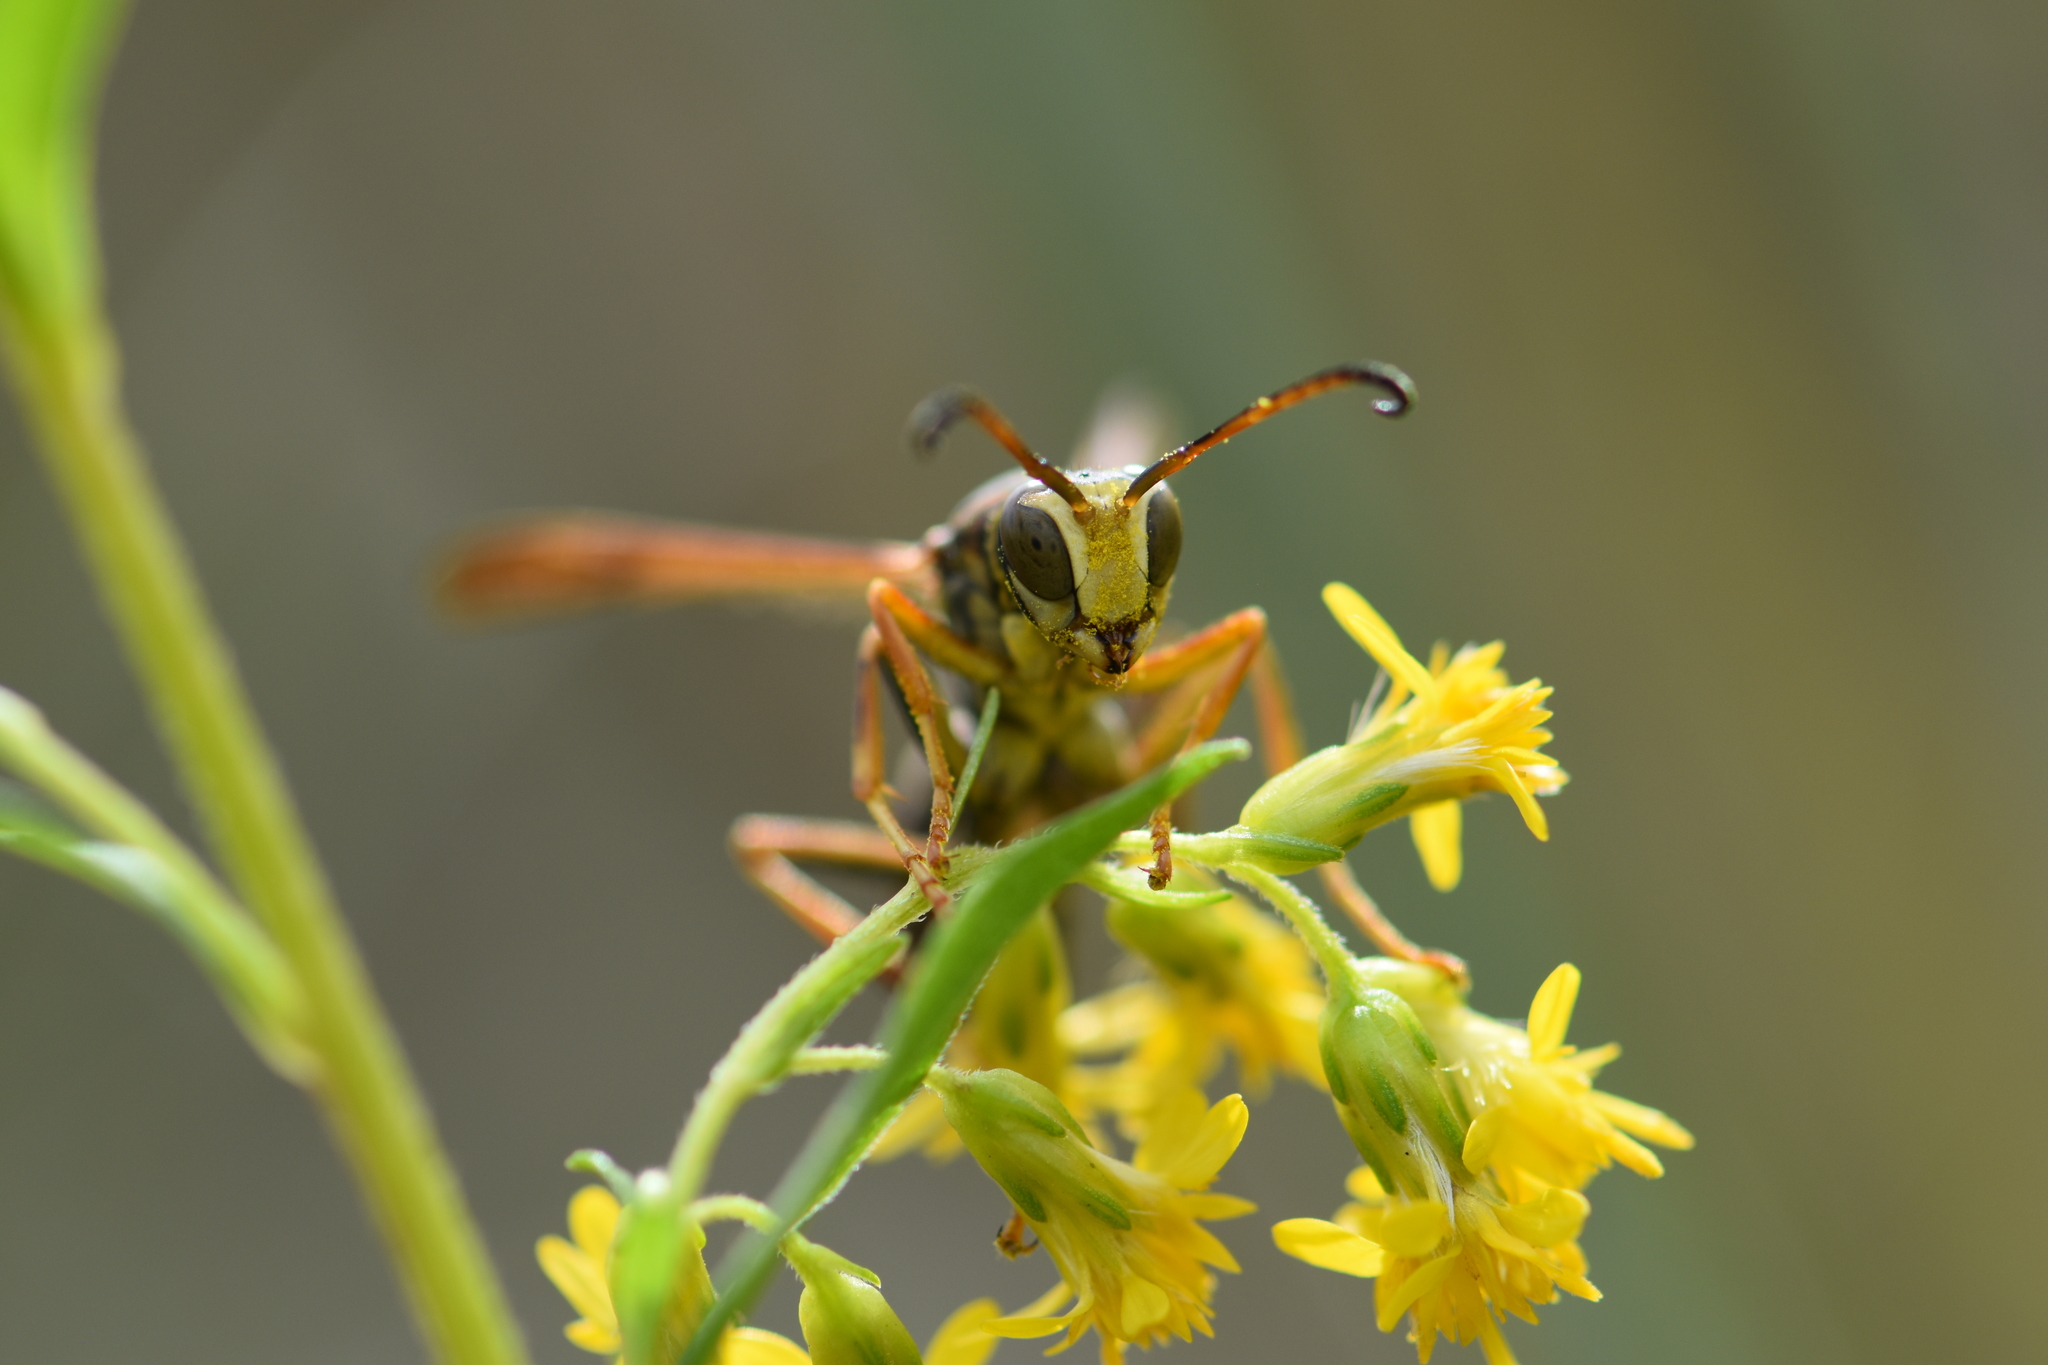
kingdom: Animalia
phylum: Arthropoda
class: Insecta
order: Hymenoptera
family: Eumenidae
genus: Polistes
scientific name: Polistes fuscatus
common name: Dark paper wasp
